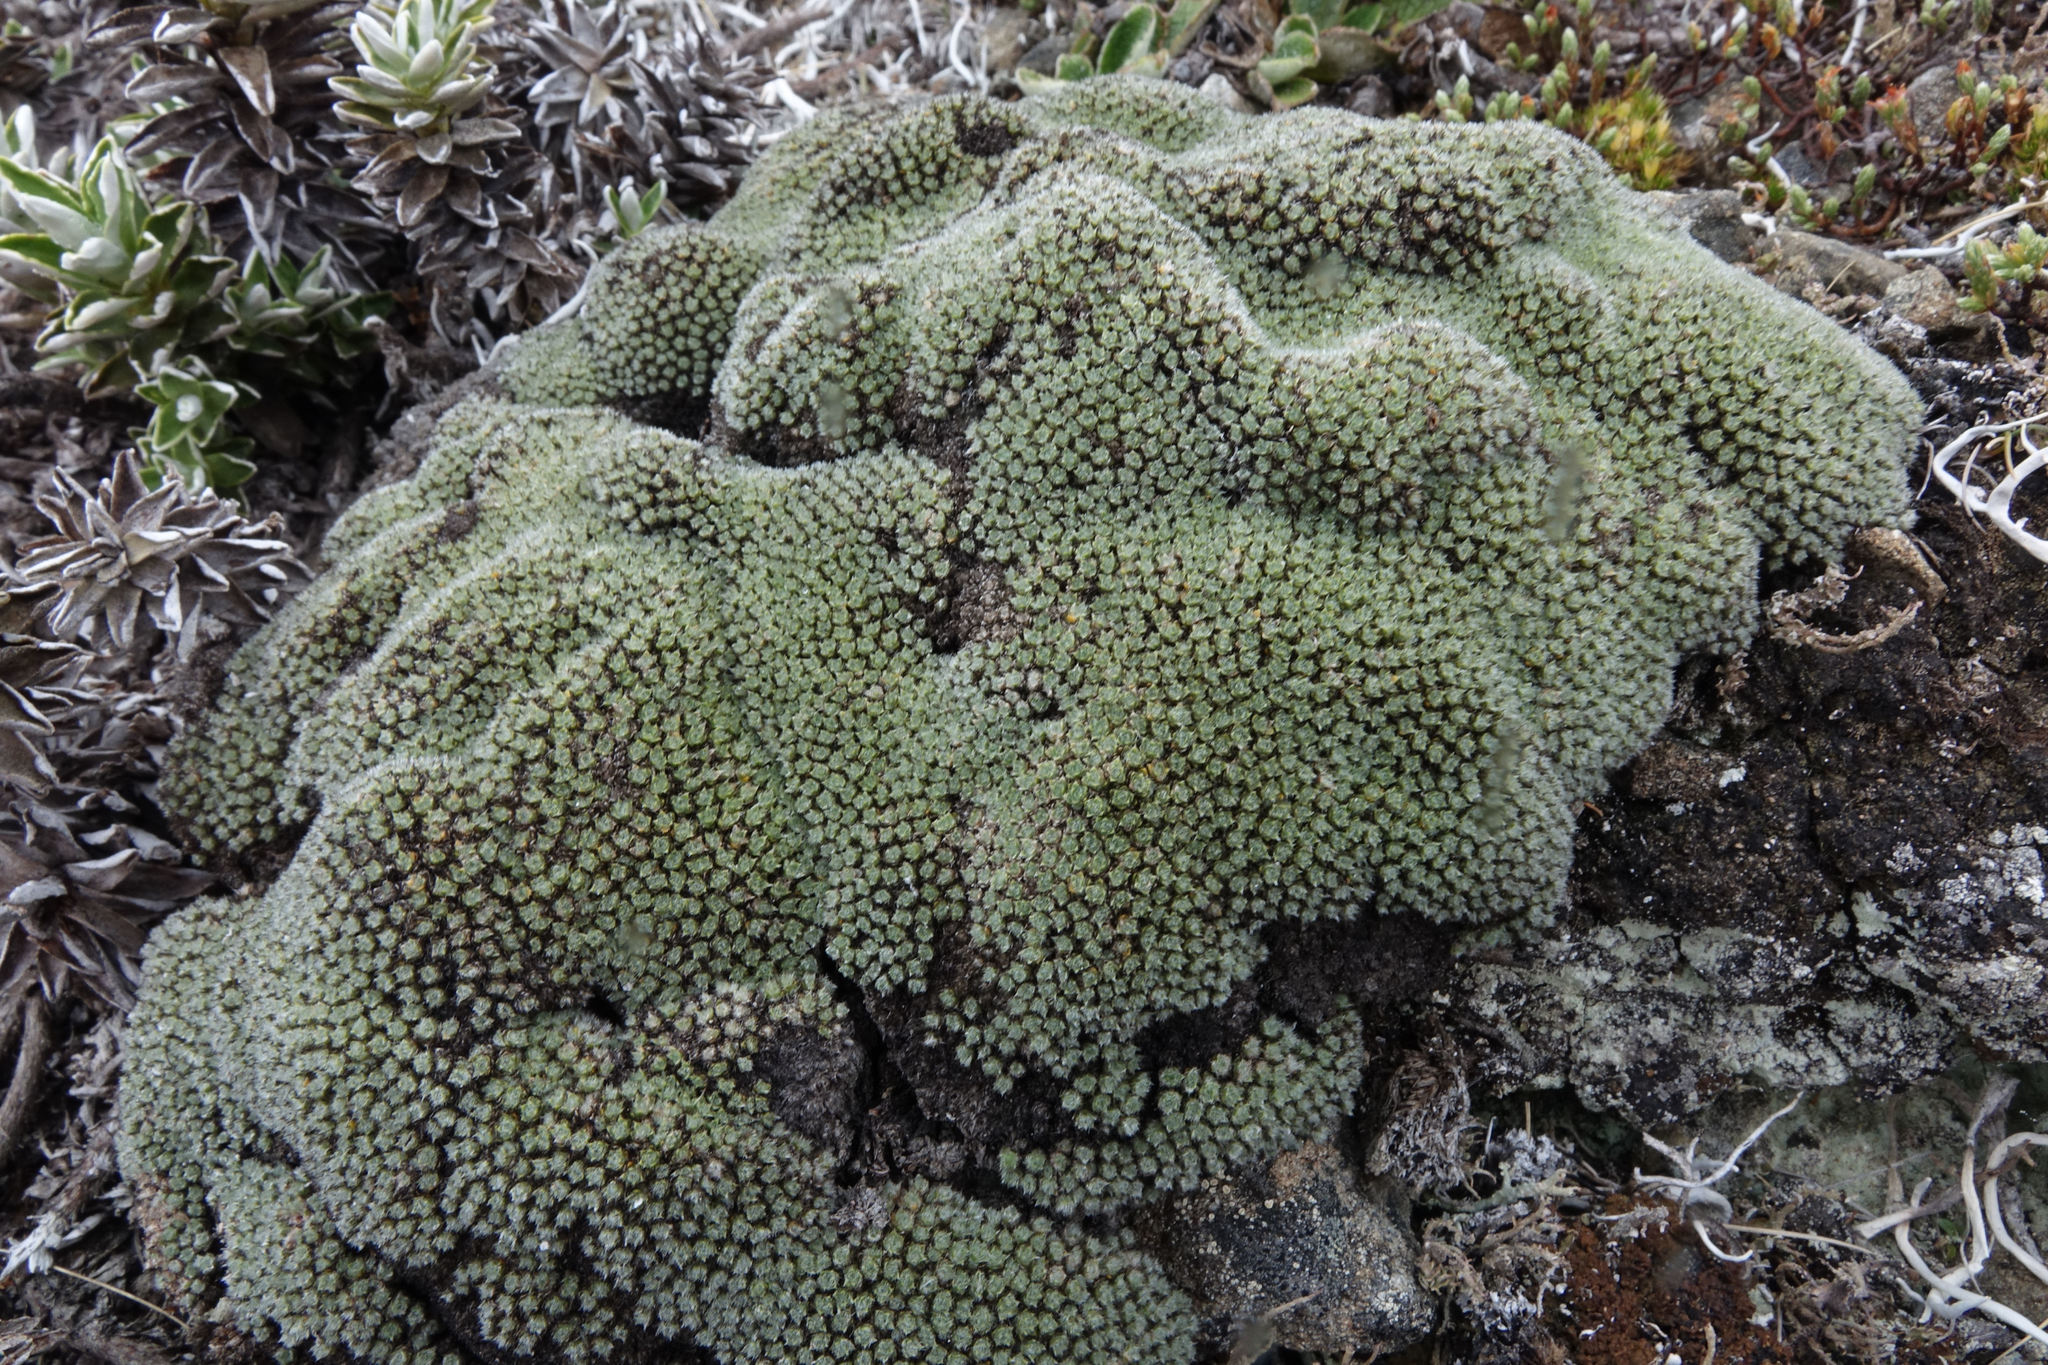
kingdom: Plantae
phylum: Tracheophyta
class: Magnoliopsida
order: Lamiales
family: Plantaginaceae
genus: Veronica
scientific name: Veronica thomsonii
